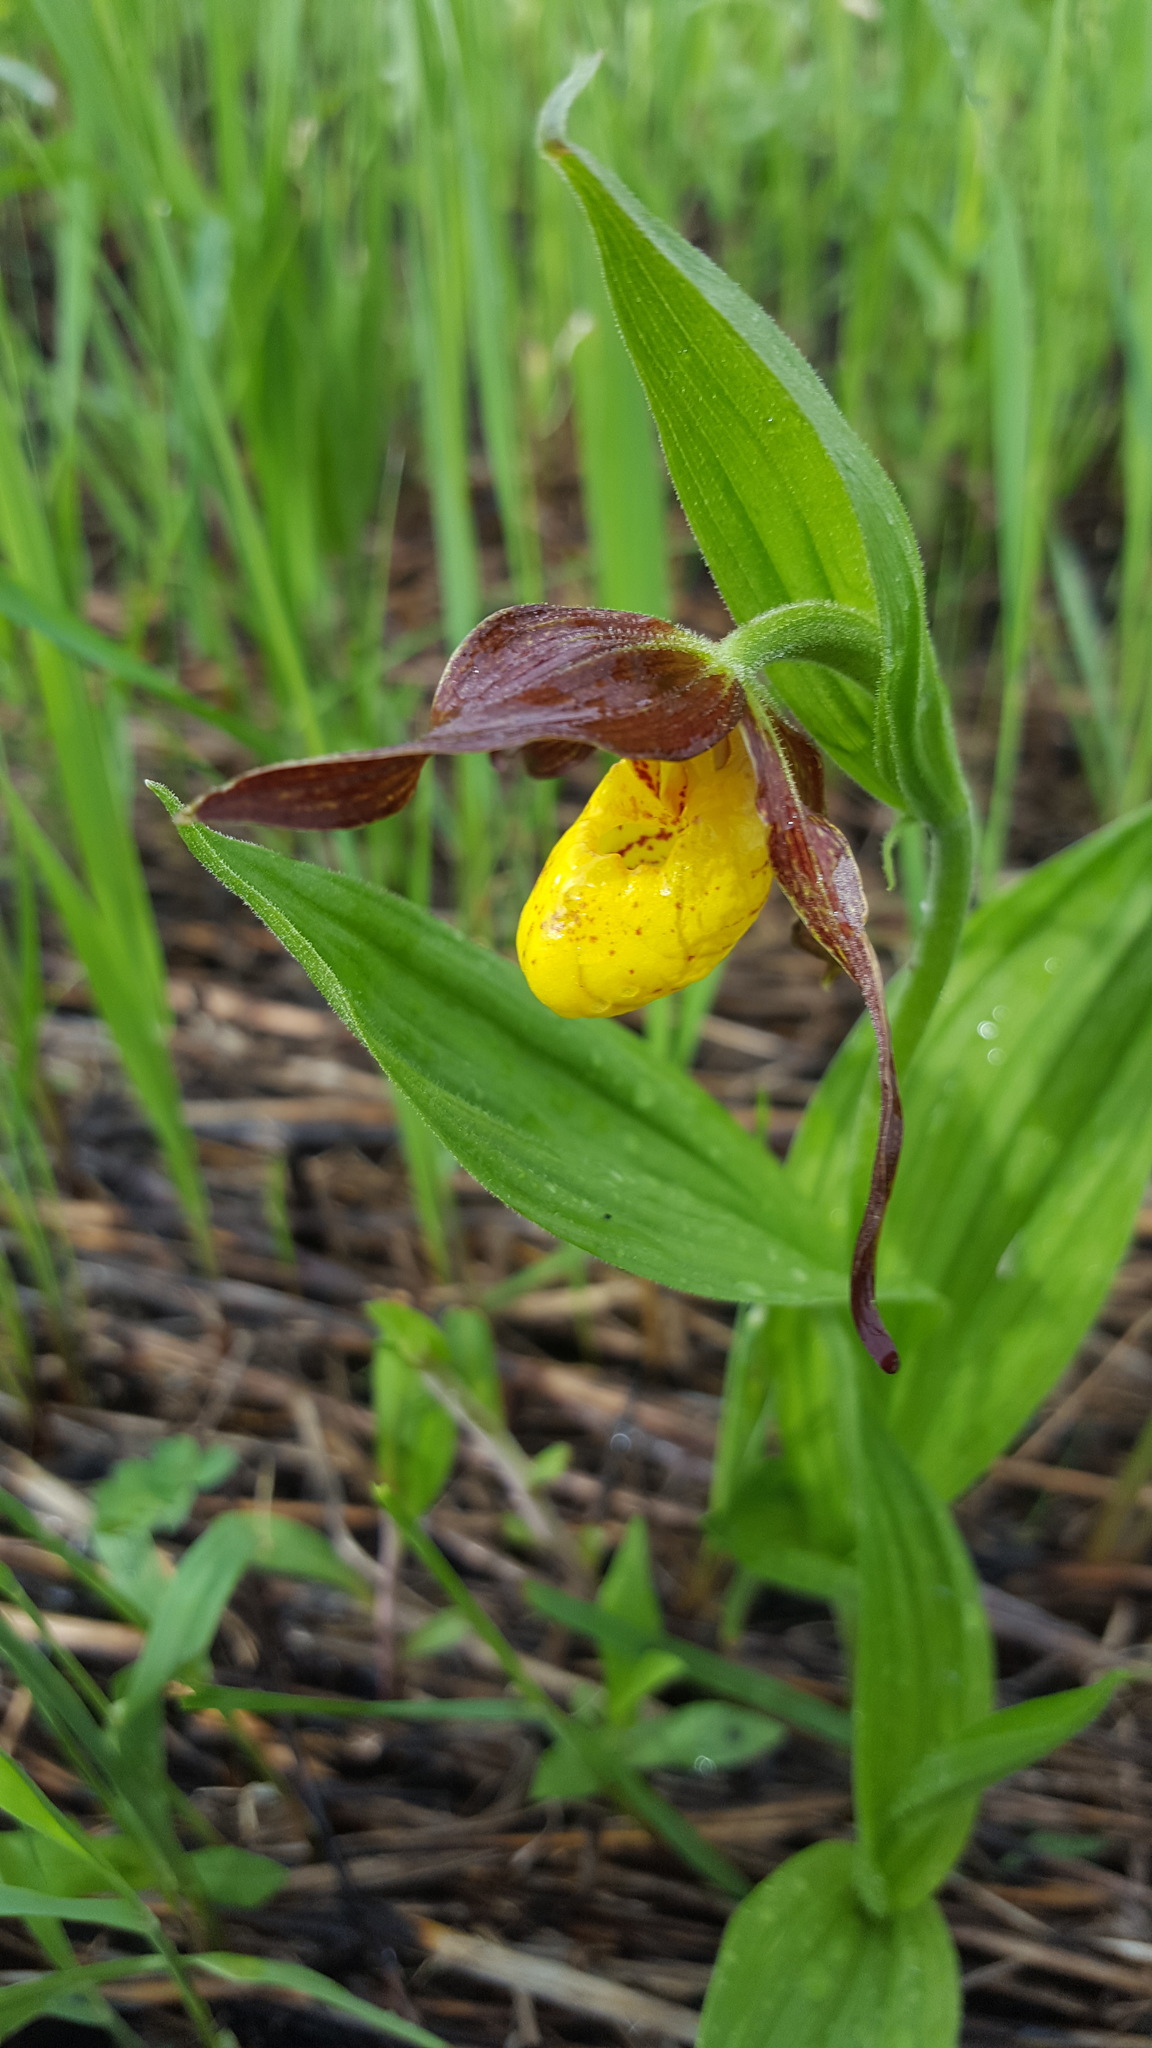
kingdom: Plantae
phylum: Tracheophyta
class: Liliopsida
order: Asparagales
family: Orchidaceae
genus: Cypripedium
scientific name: Cypripedium parviflorum
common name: American yellow lady's-slipper
